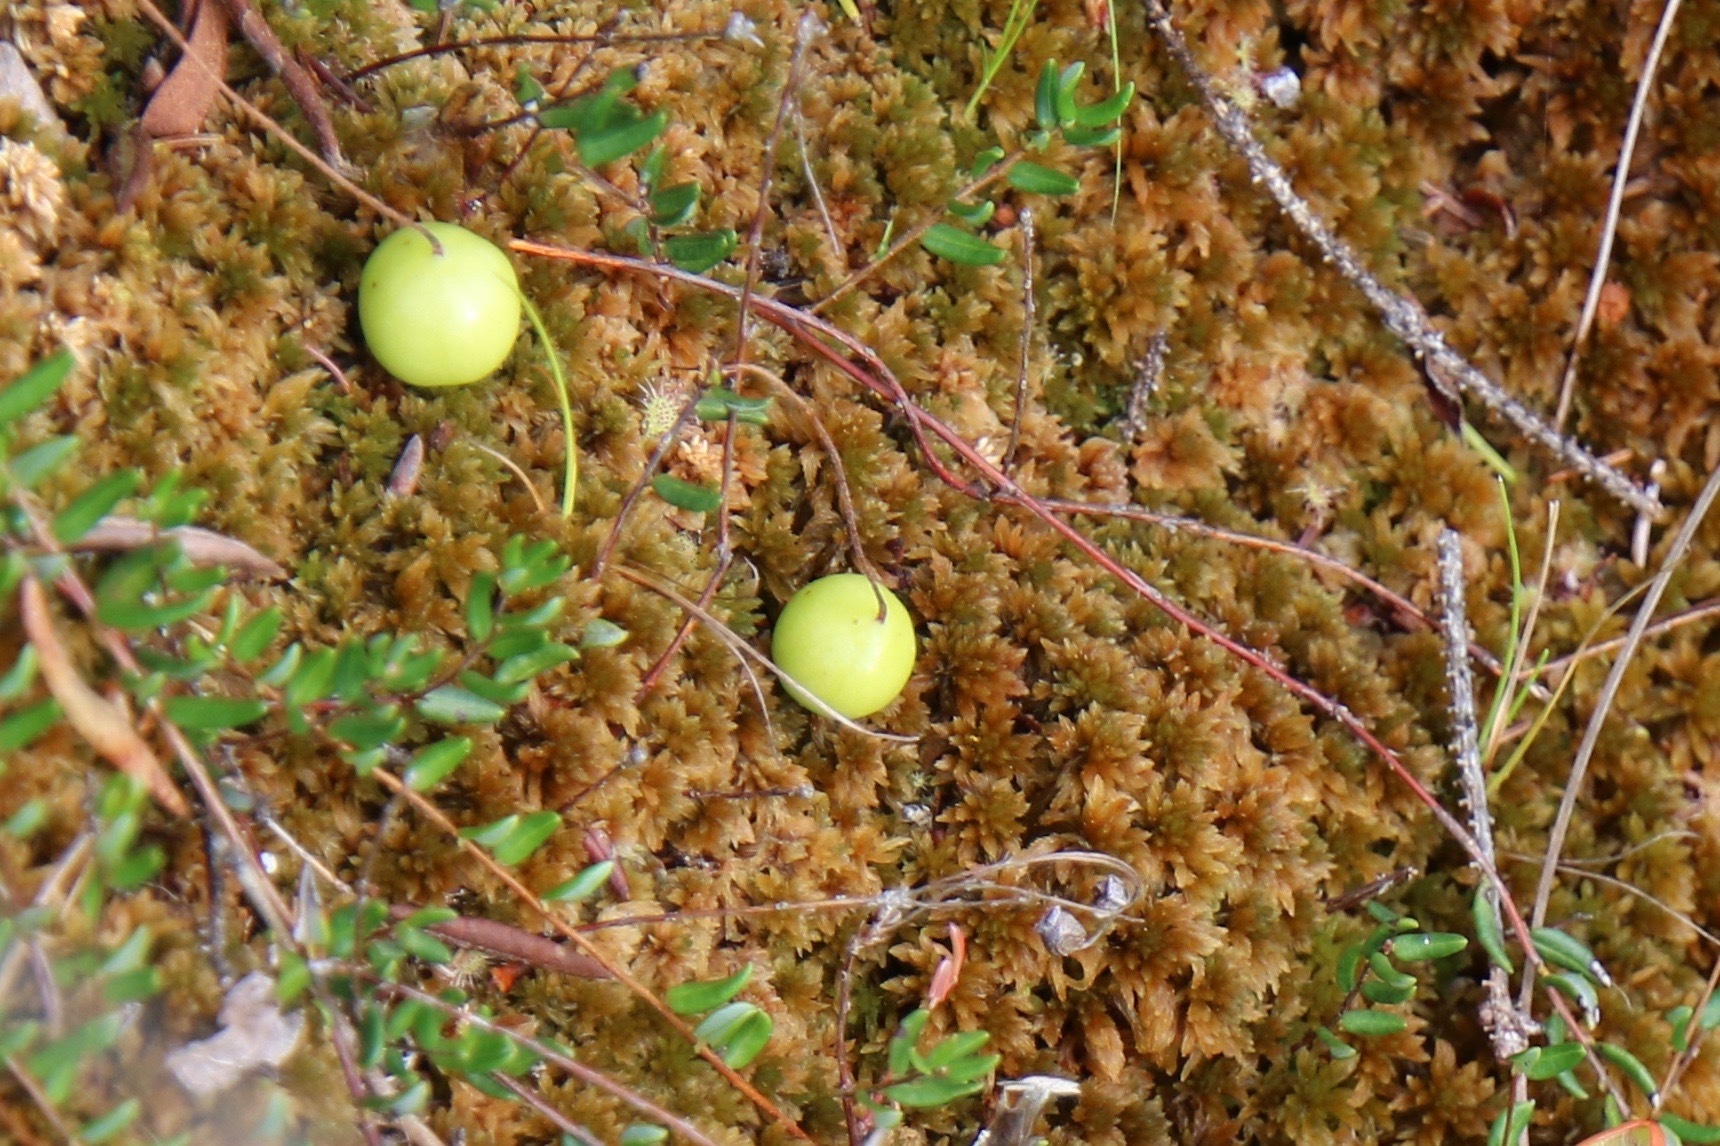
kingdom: Plantae
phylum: Tracheophyta
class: Magnoliopsida
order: Ericales
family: Ericaceae
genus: Vaccinium
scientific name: Vaccinium oxycoccos
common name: Cranberry
